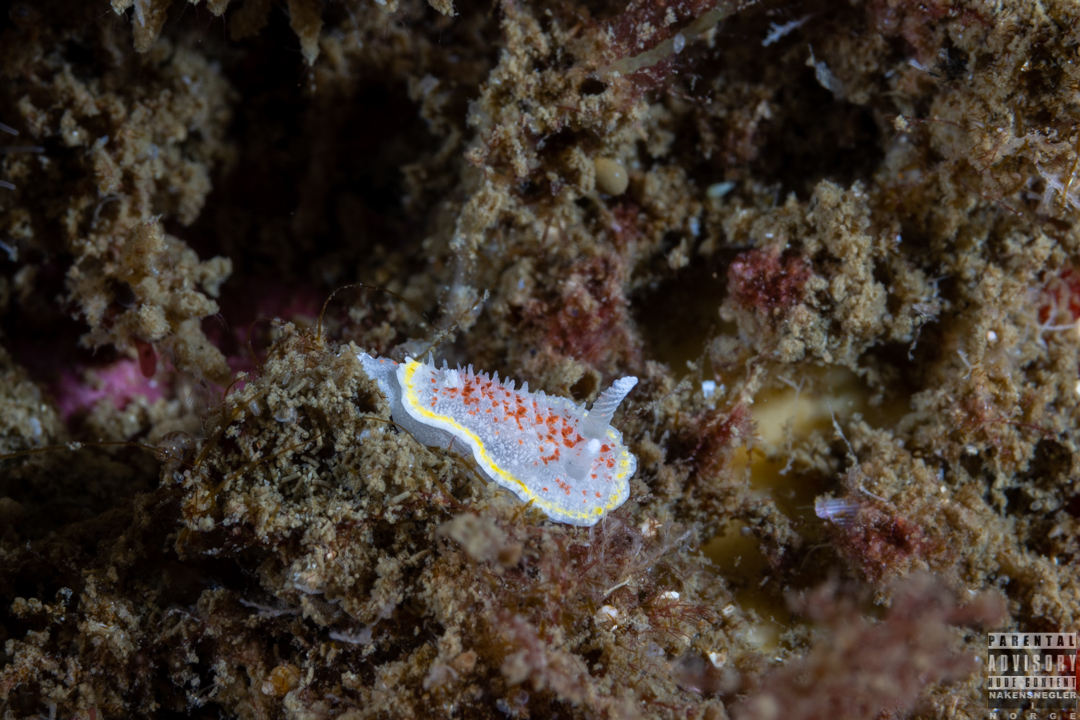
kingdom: Animalia
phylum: Mollusca
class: Gastropoda
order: Nudibranchia
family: Calycidorididae
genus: Diaphorodoris
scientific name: Diaphorodoris luteocincta
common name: Fried egg nudibranch
